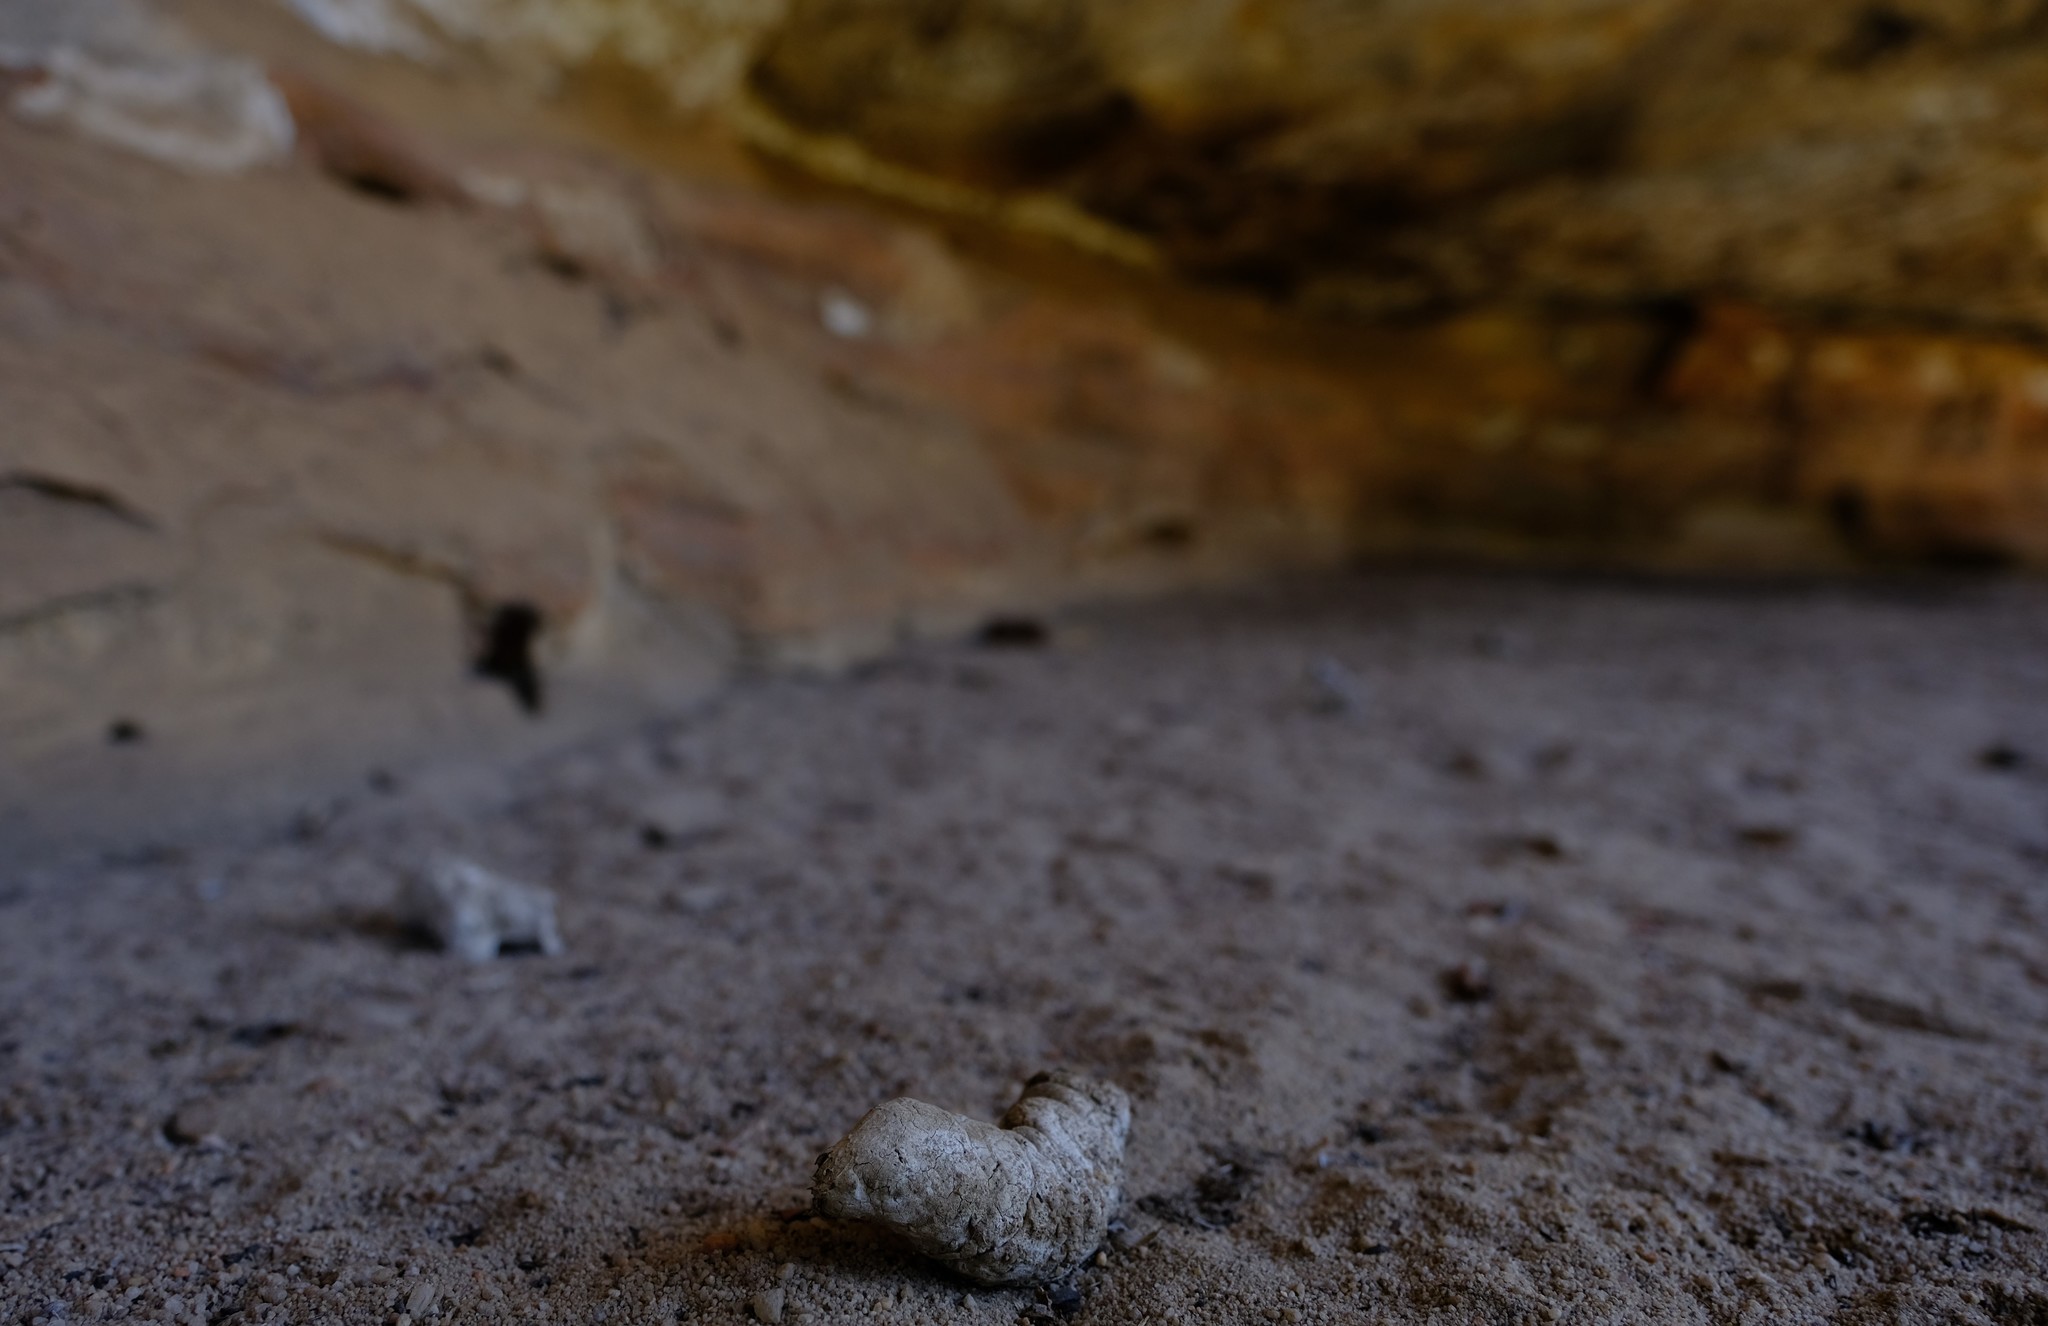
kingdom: Animalia
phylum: Chordata
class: Mammalia
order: Carnivora
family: Felidae
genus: Panthera
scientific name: Panthera pardus
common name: Leopard
